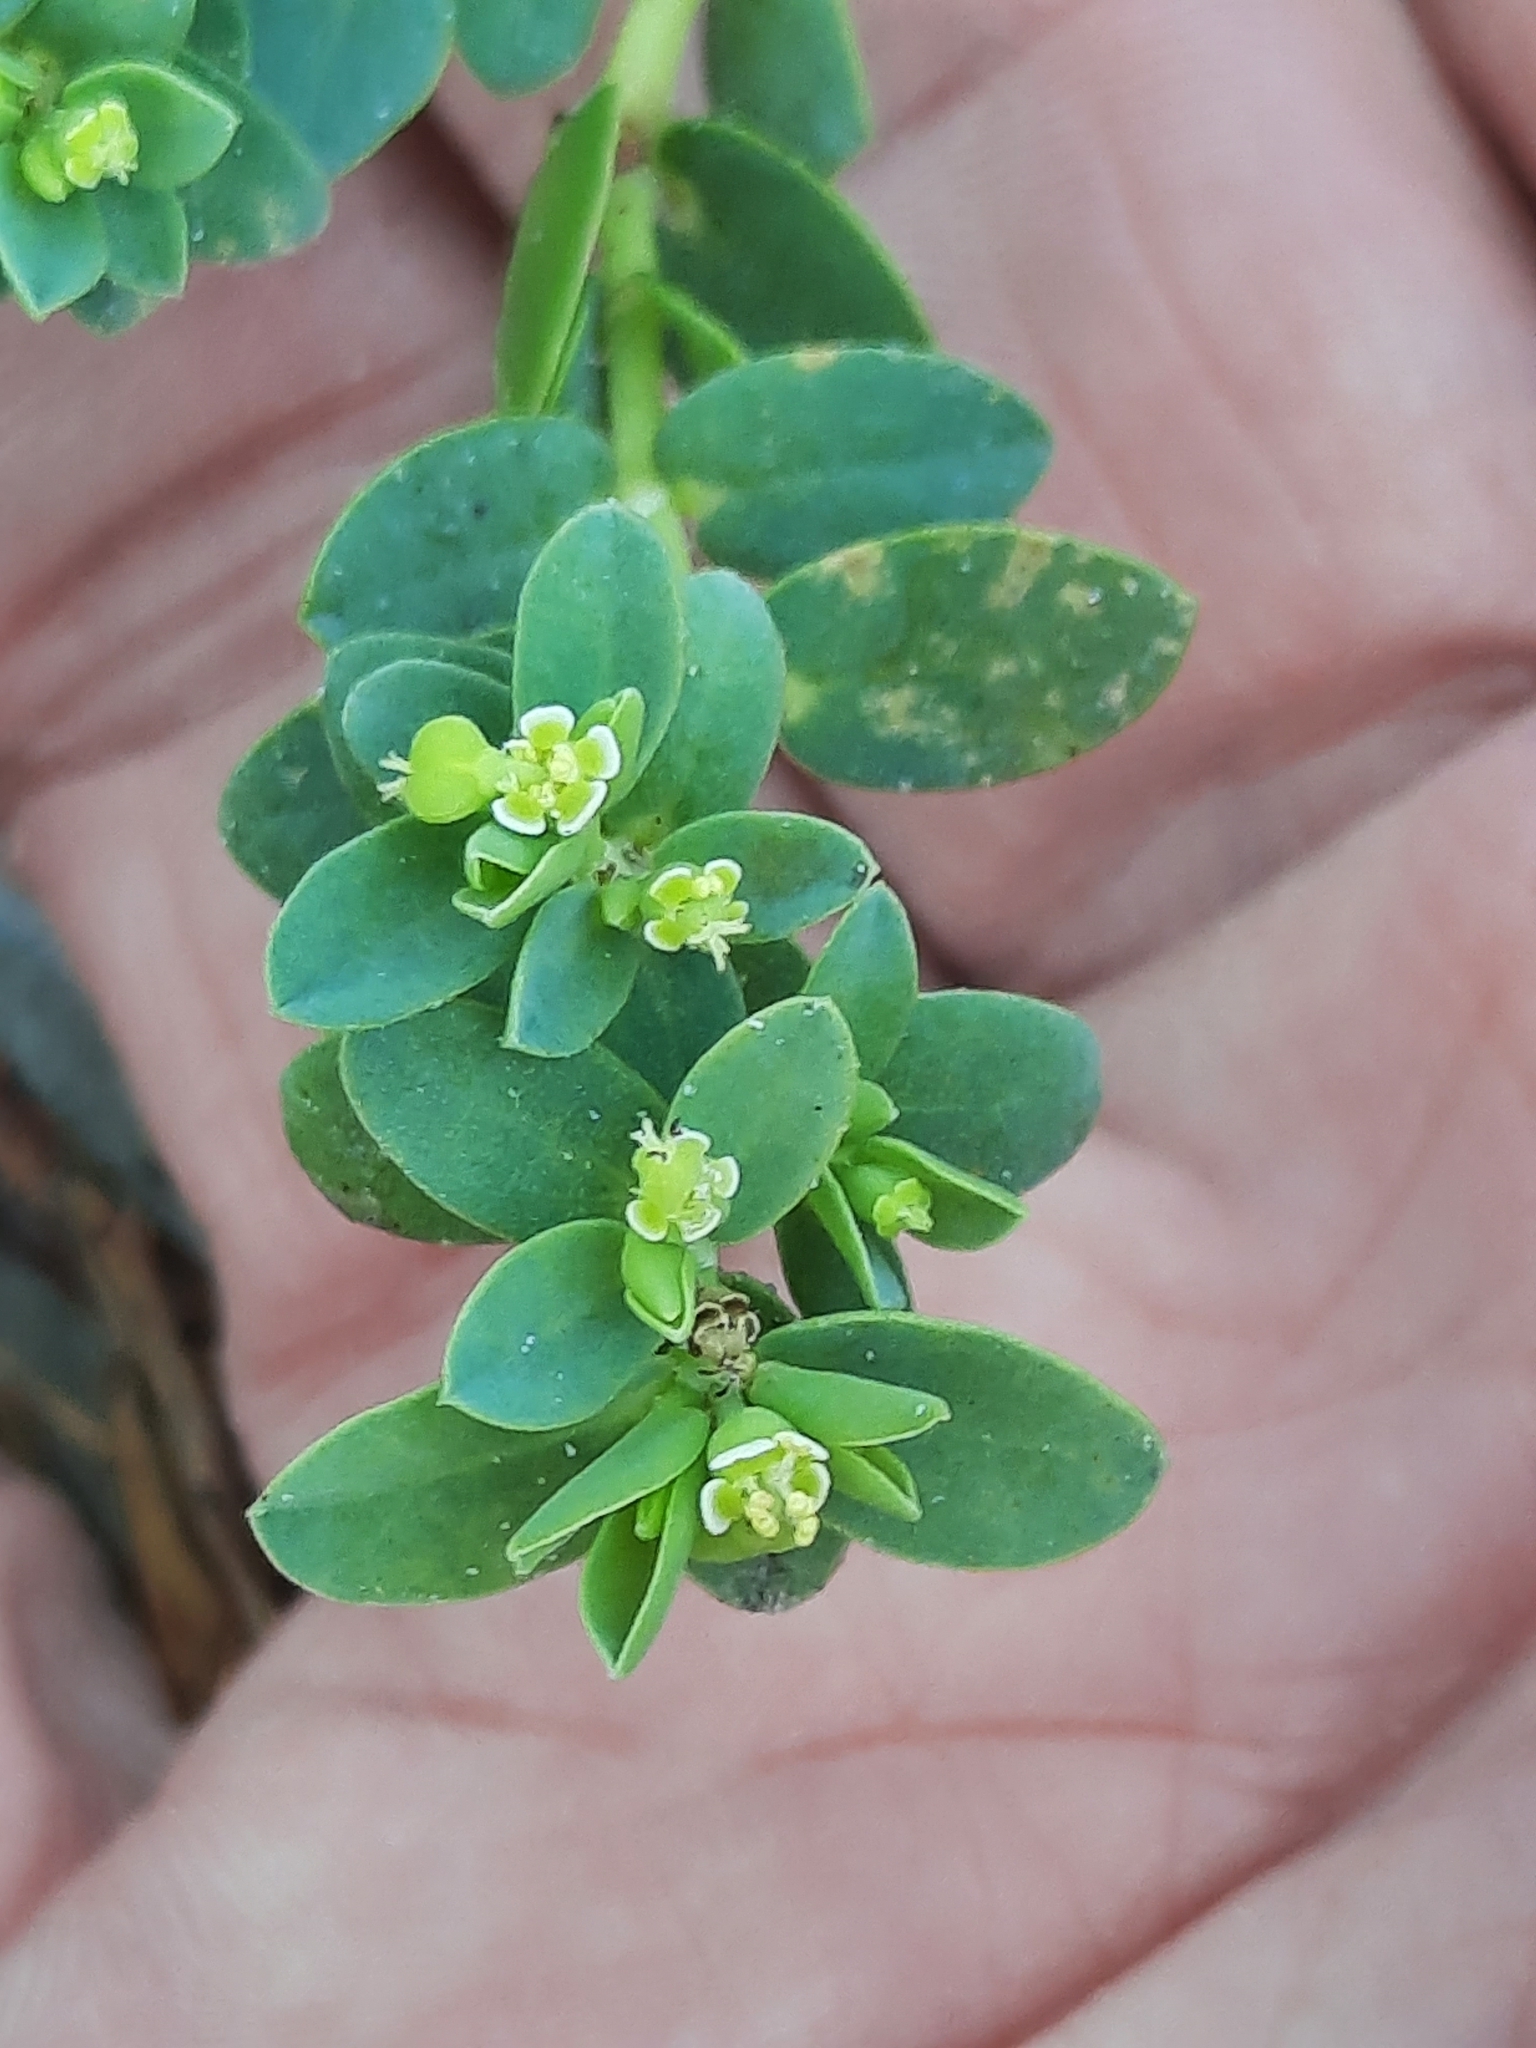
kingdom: Plantae
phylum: Tracheophyta
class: Magnoliopsida
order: Malpighiales
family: Euphorbiaceae
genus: Euphorbia
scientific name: Euphorbia mesembryanthemifolia
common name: Coastal beach sandmat
